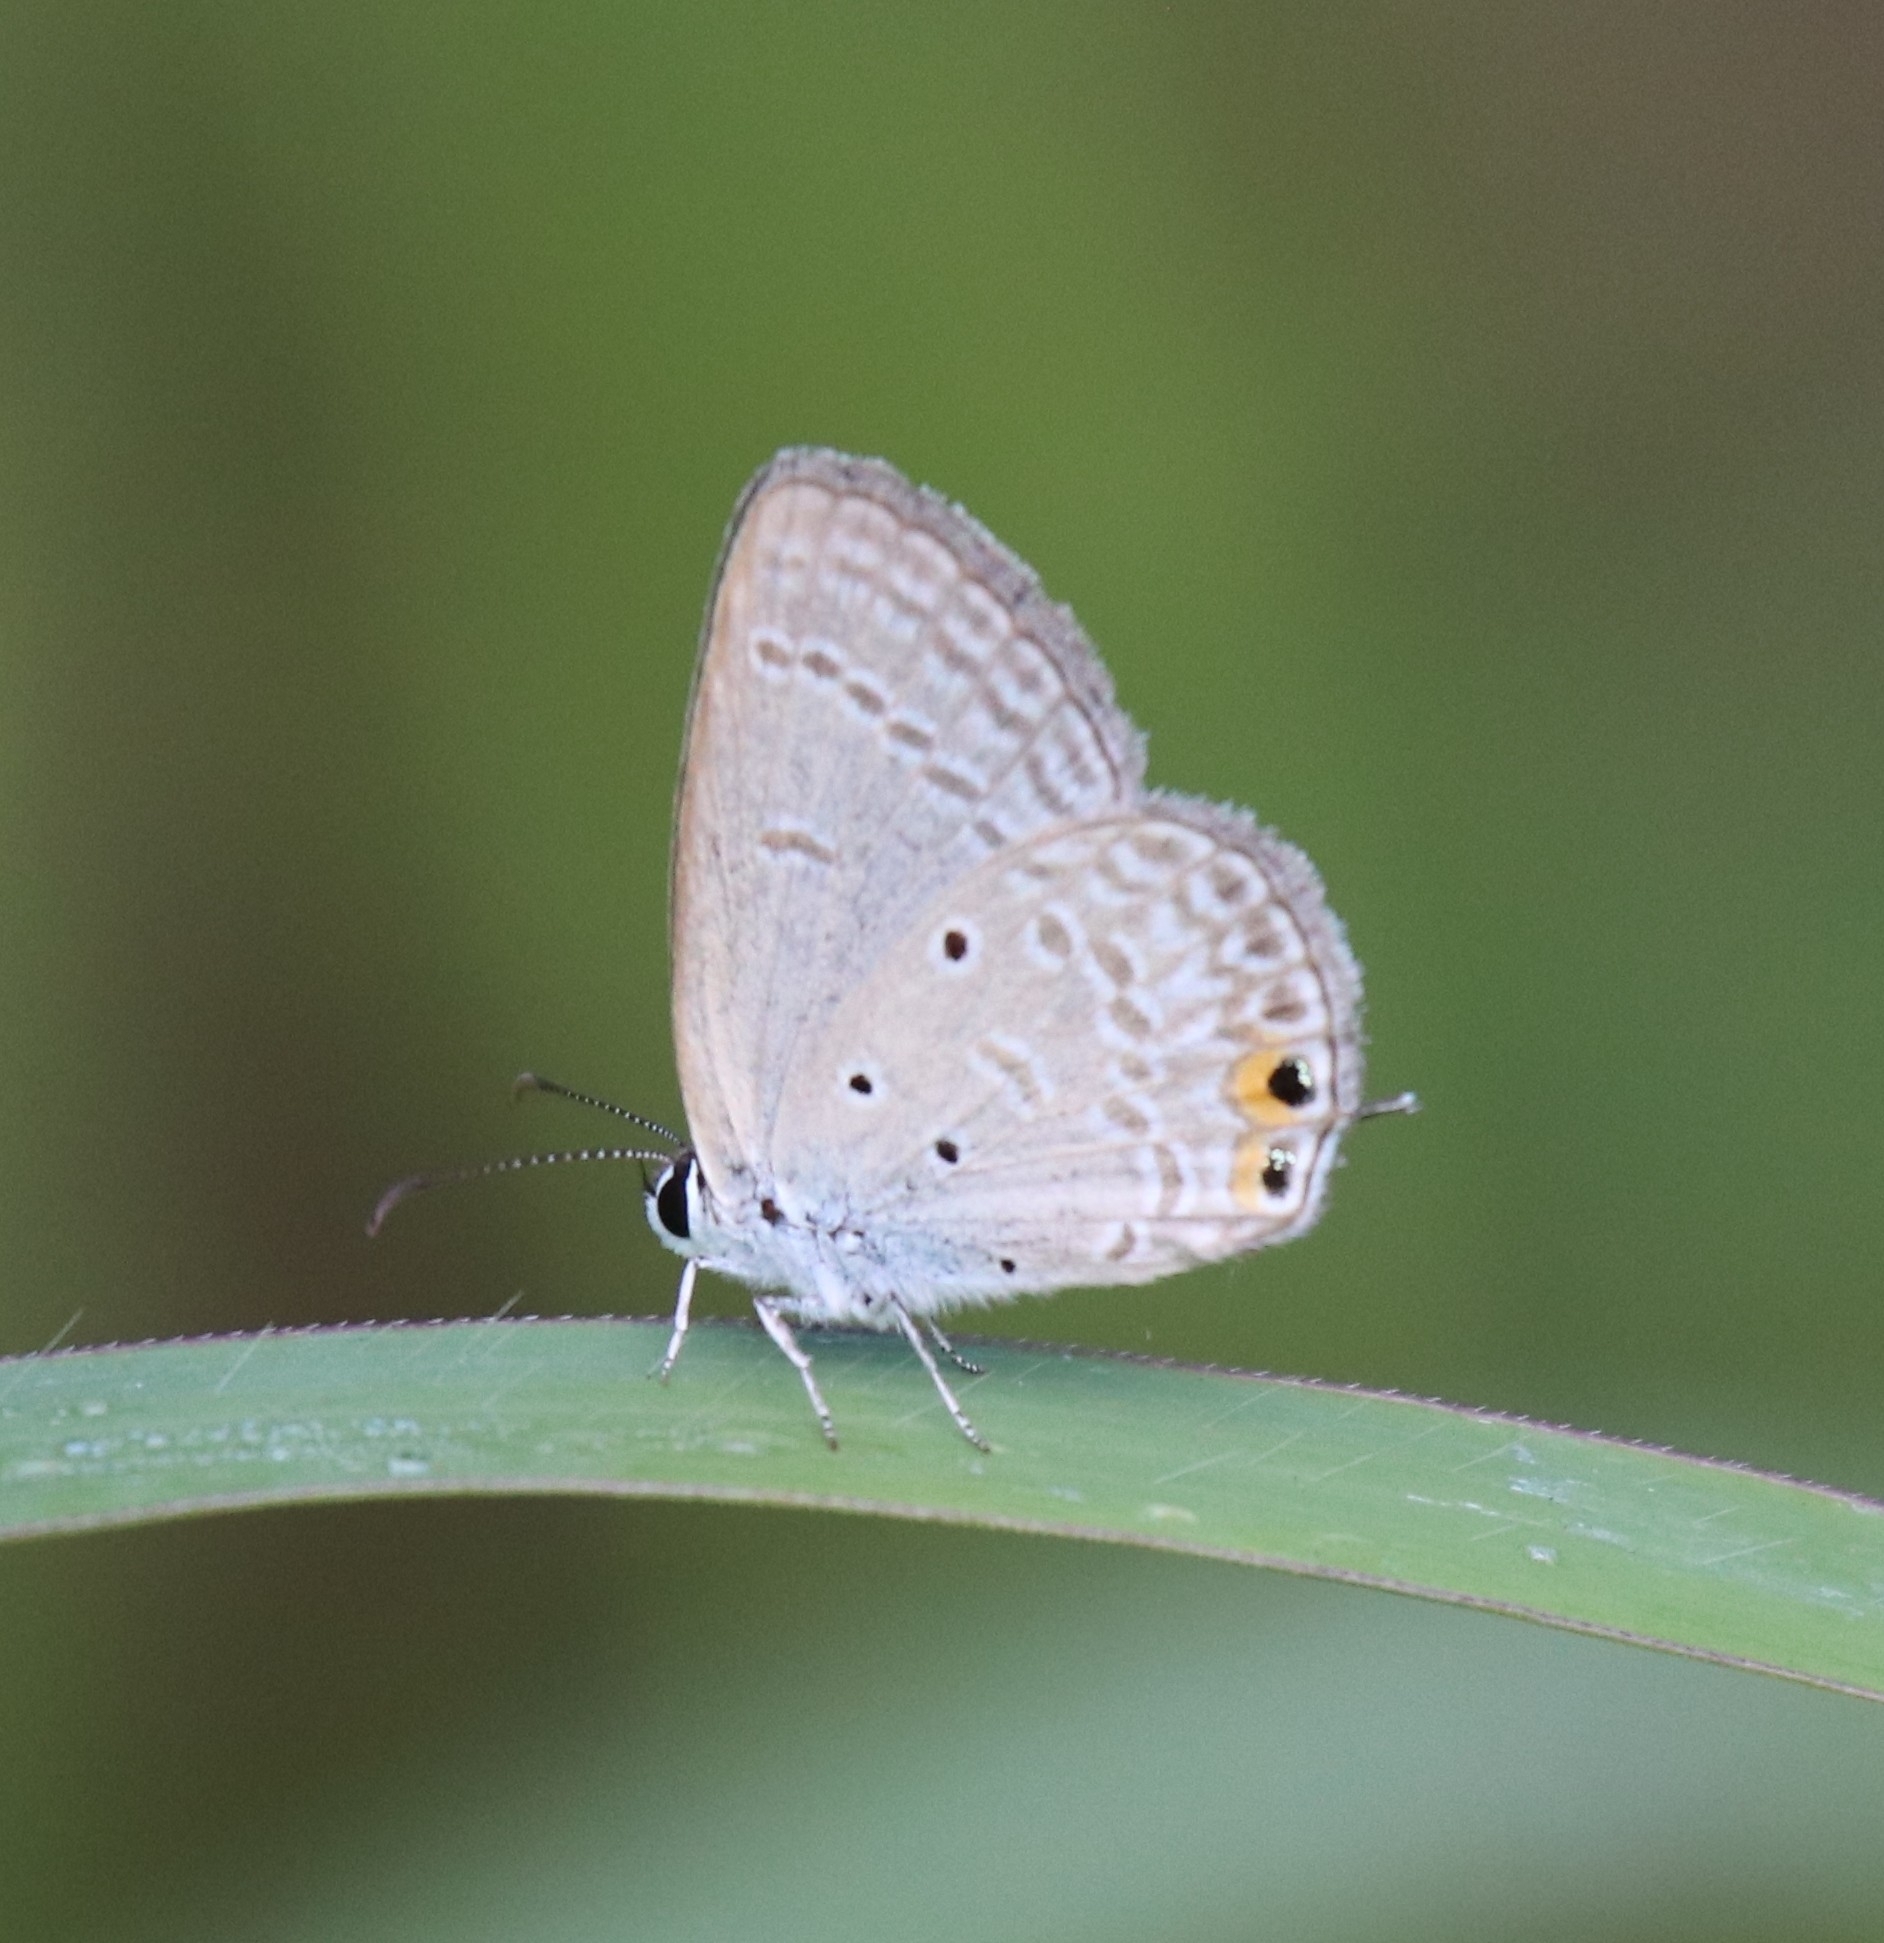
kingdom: Animalia
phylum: Arthropoda
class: Insecta
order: Lepidoptera
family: Lycaenidae
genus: Euchrysops
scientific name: Euchrysops cnejus
